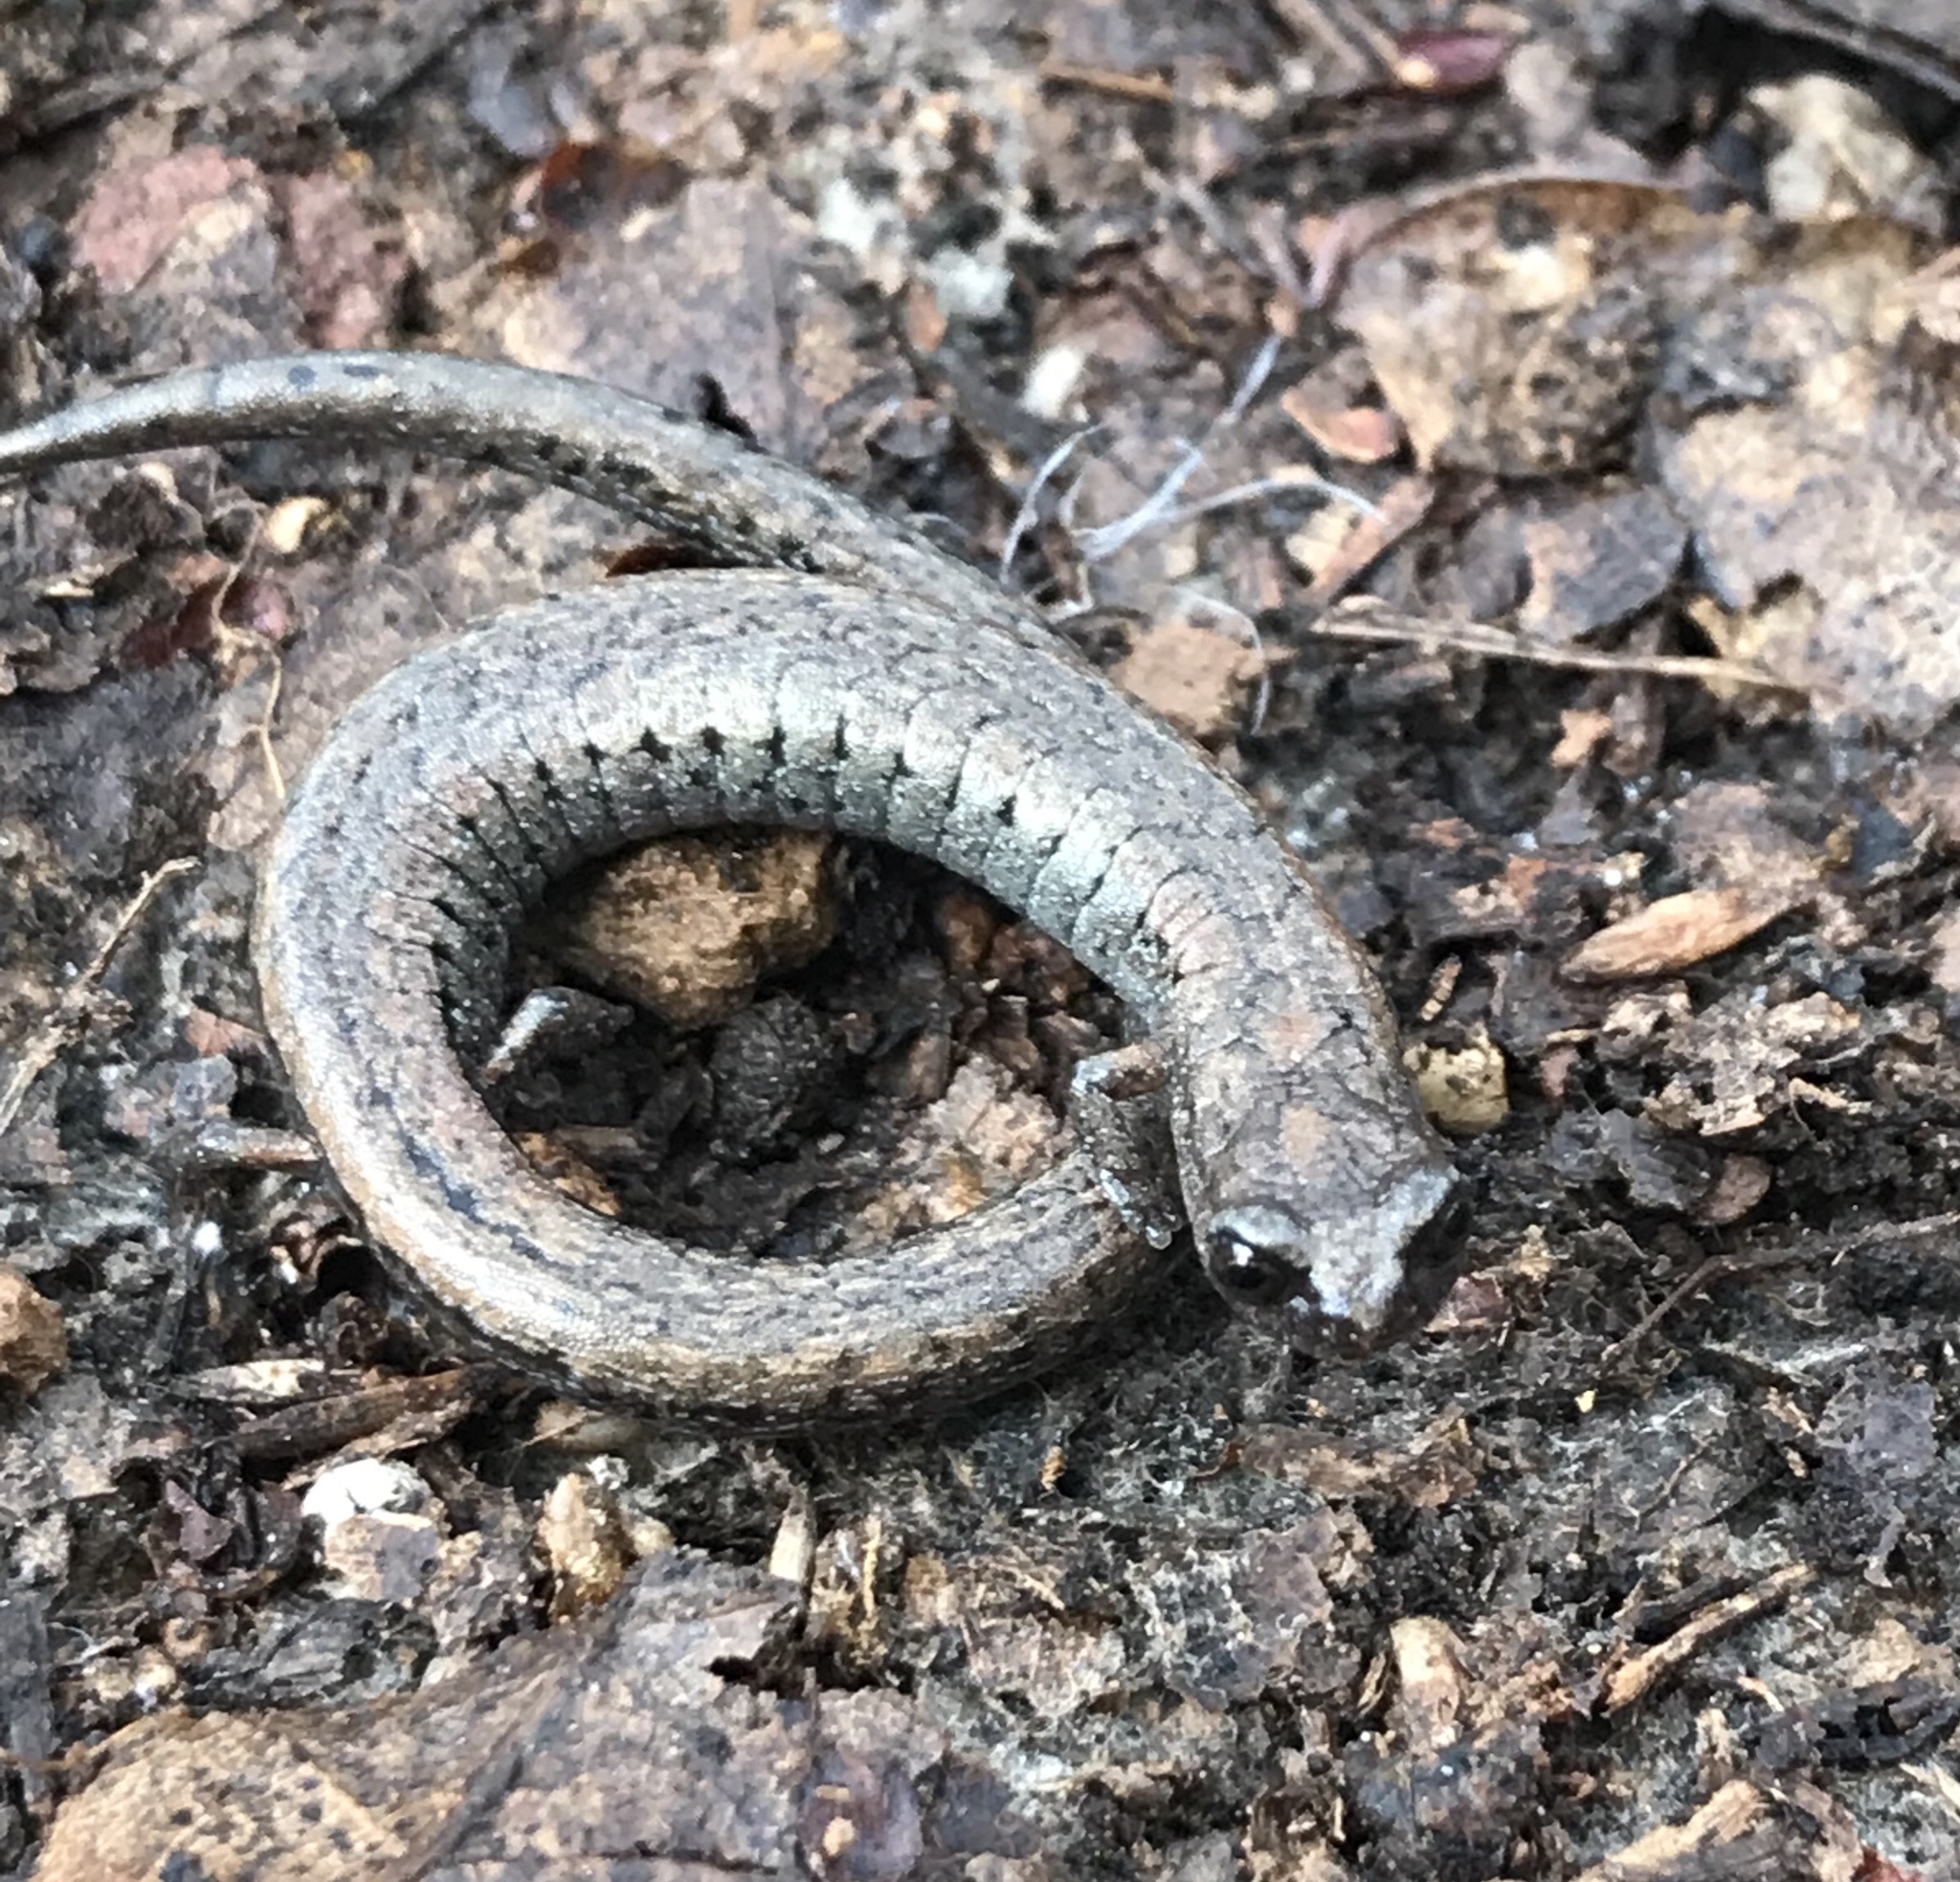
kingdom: Animalia
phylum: Chordata
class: Amphibia
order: Caudata
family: Plethodontidae
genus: Batrachoseps
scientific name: Batrachoseps attenuatus
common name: California slender salamander
